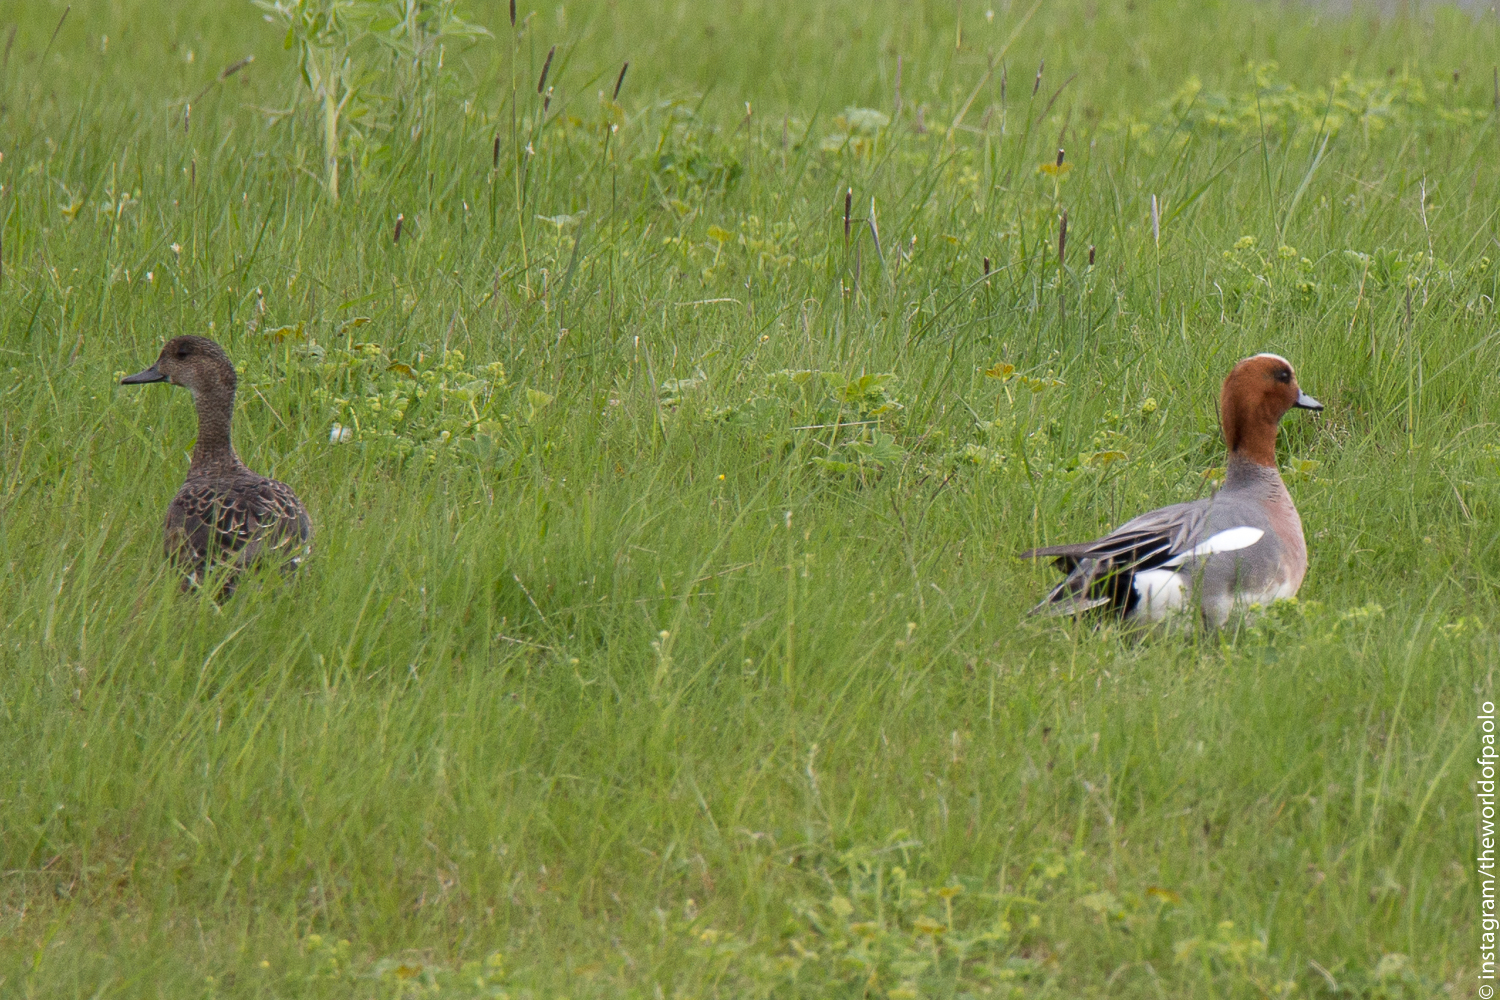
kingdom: Animalia
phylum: Chordata
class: Aves
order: Anseriformes
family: Anatidae
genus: Mareca
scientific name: Mareca penelope
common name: Eurasian wigeon
